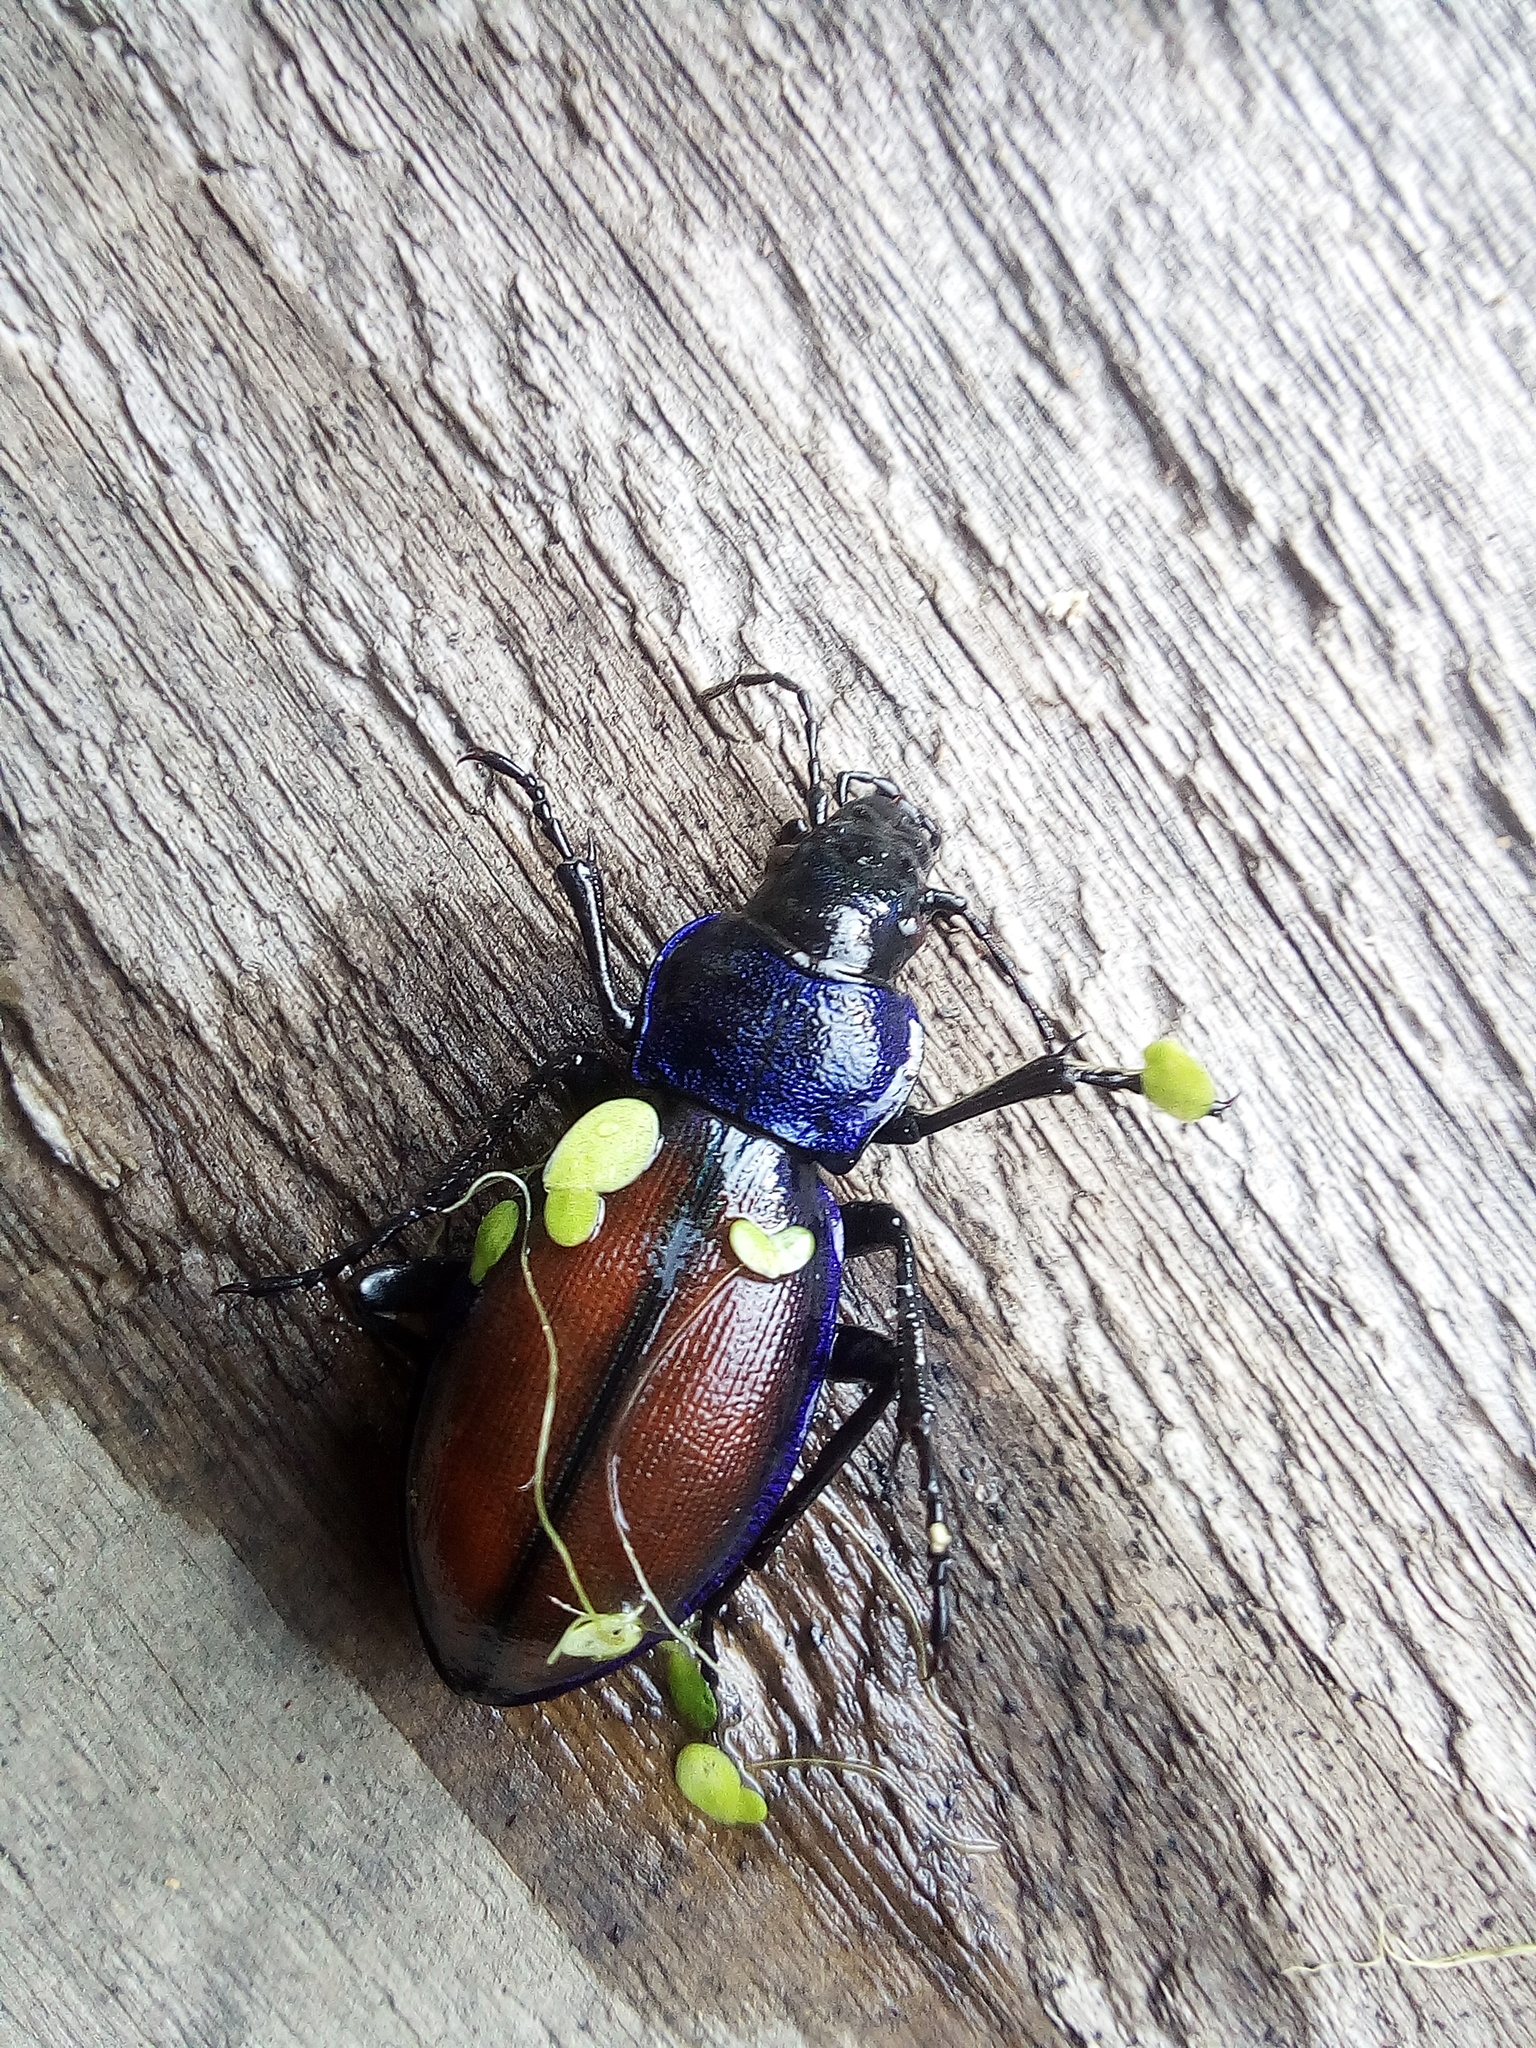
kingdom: Animalia
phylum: Arthropoda
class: Insecta
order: Coleoptera
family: Carabidae
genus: Carabus
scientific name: Carabus schoenherri
